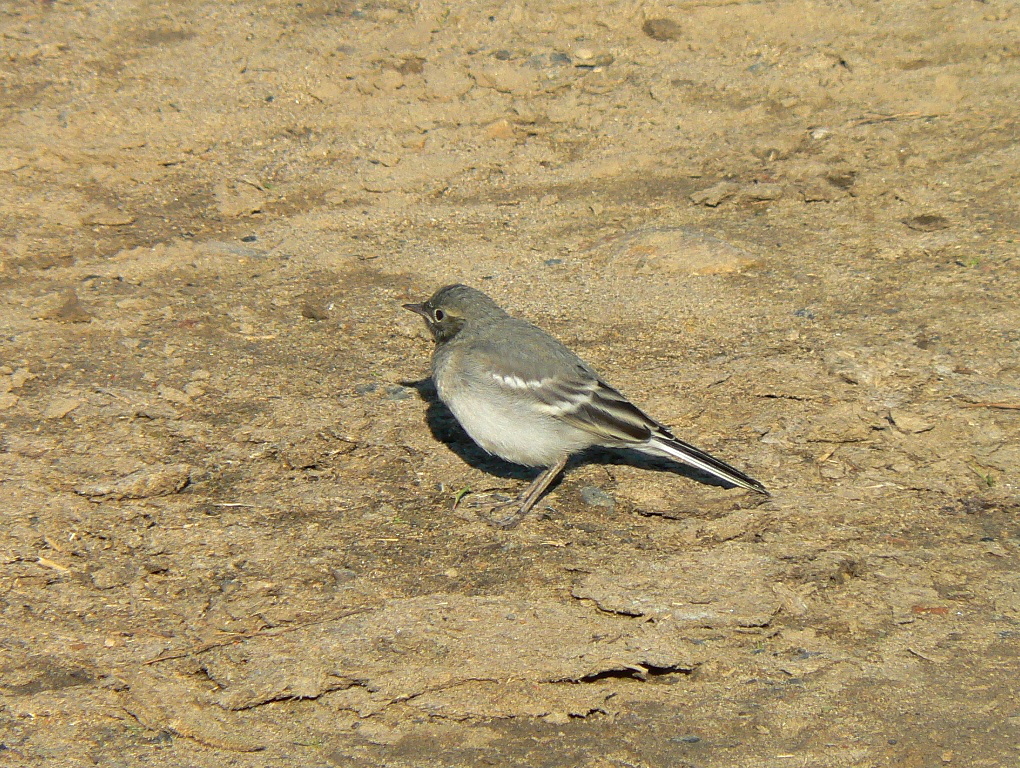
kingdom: Animalia
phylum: Chordata
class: Aves
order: Passeriformes
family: Motacillidae
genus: Motacilla
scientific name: Motacilla alba
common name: White wagtail
